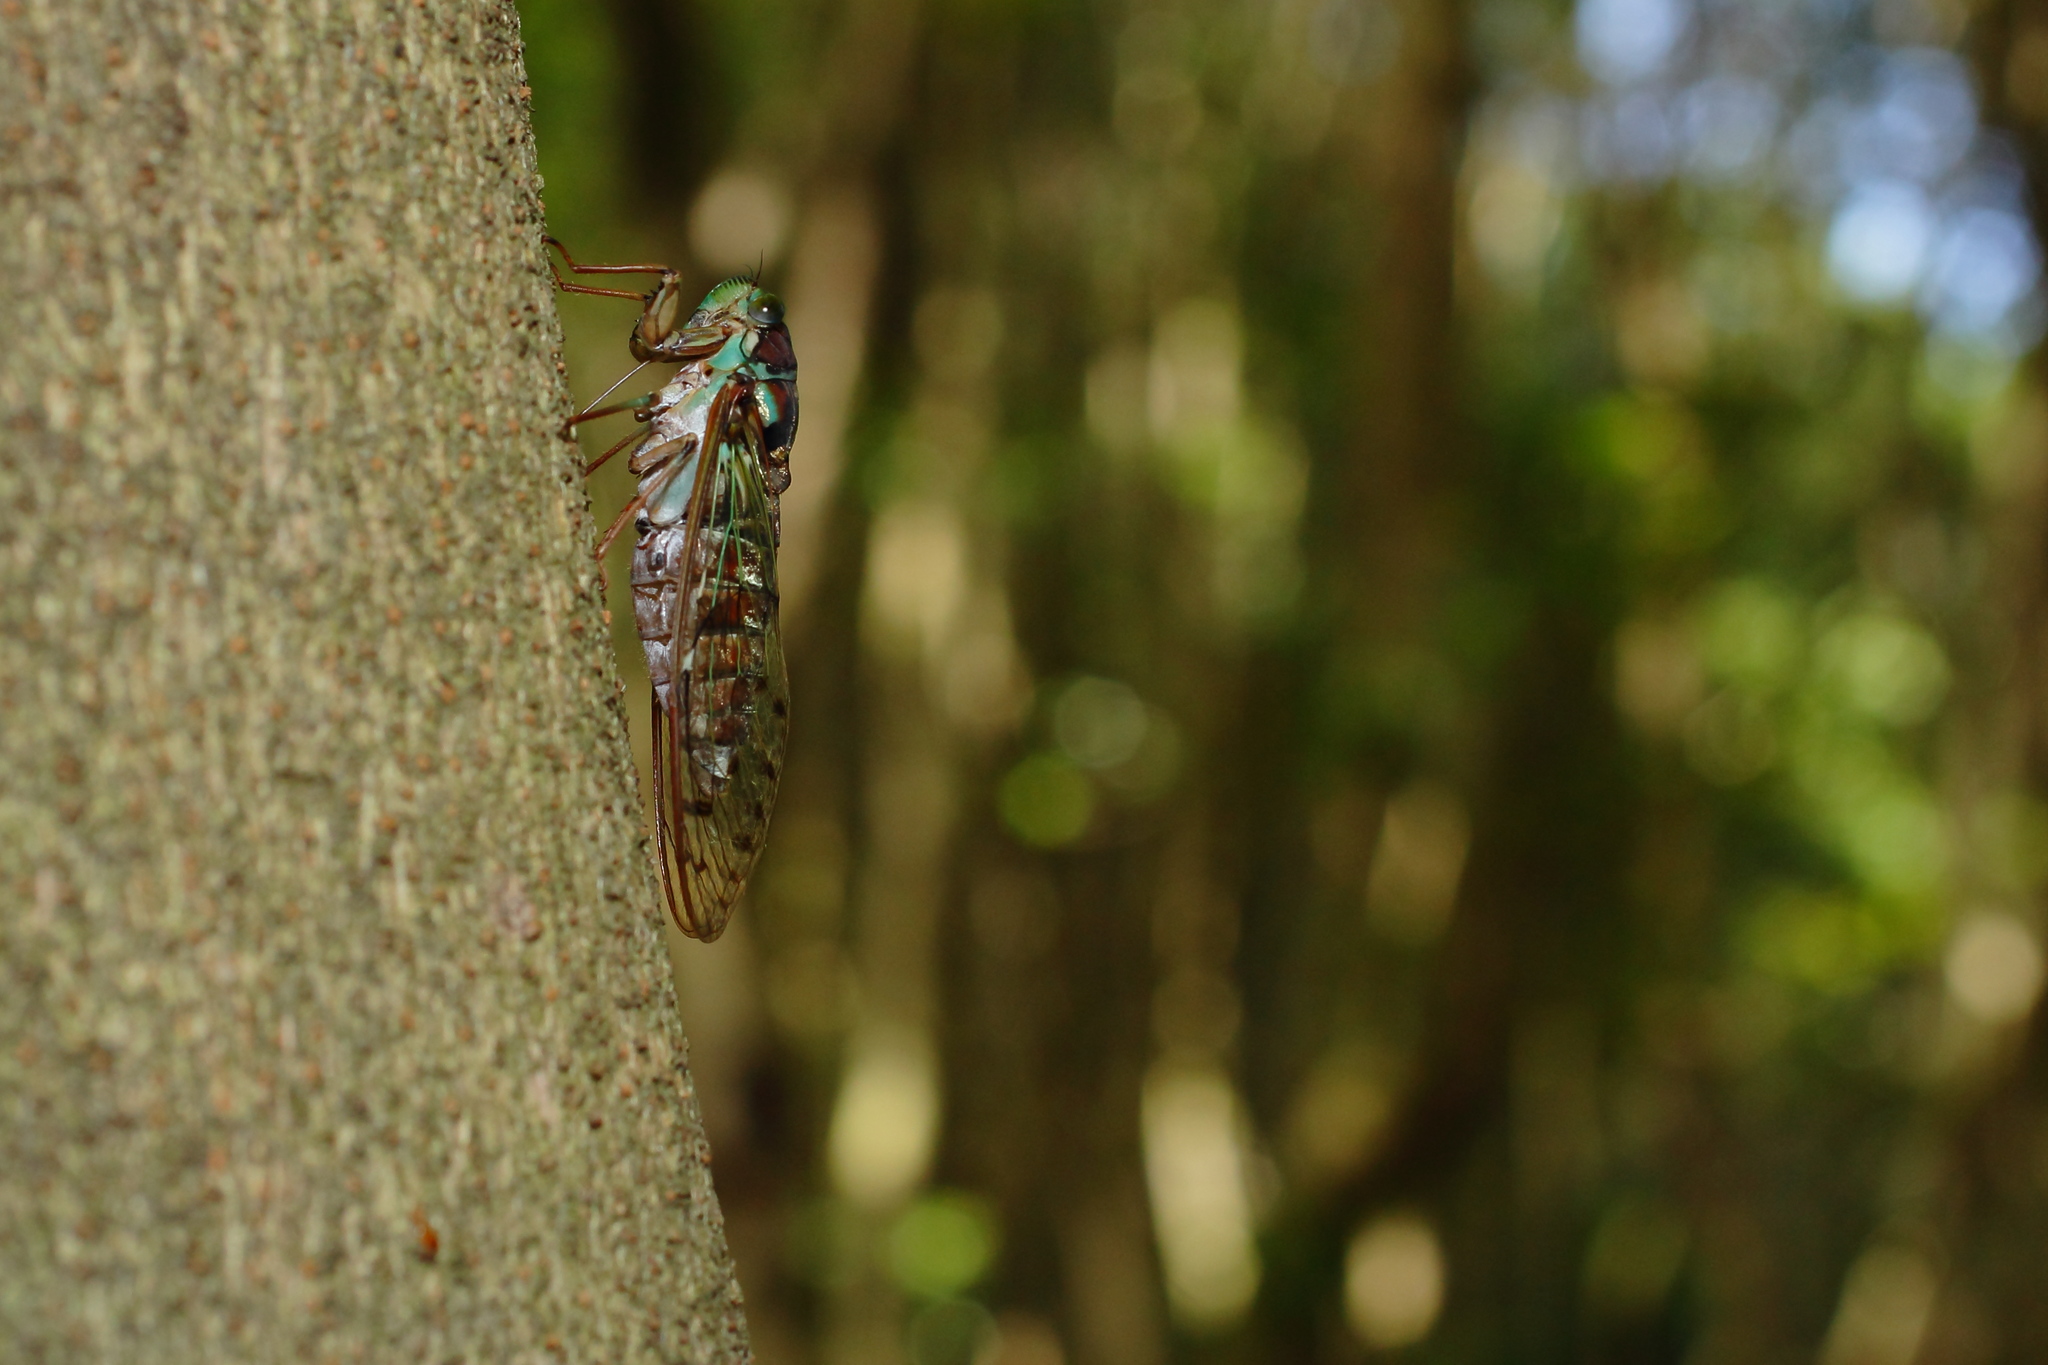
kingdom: Animalia
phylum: Arthropoda
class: Insecta
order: Hemiptera
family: Cicadidae
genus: Tanna
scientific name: Tanna japonensis
